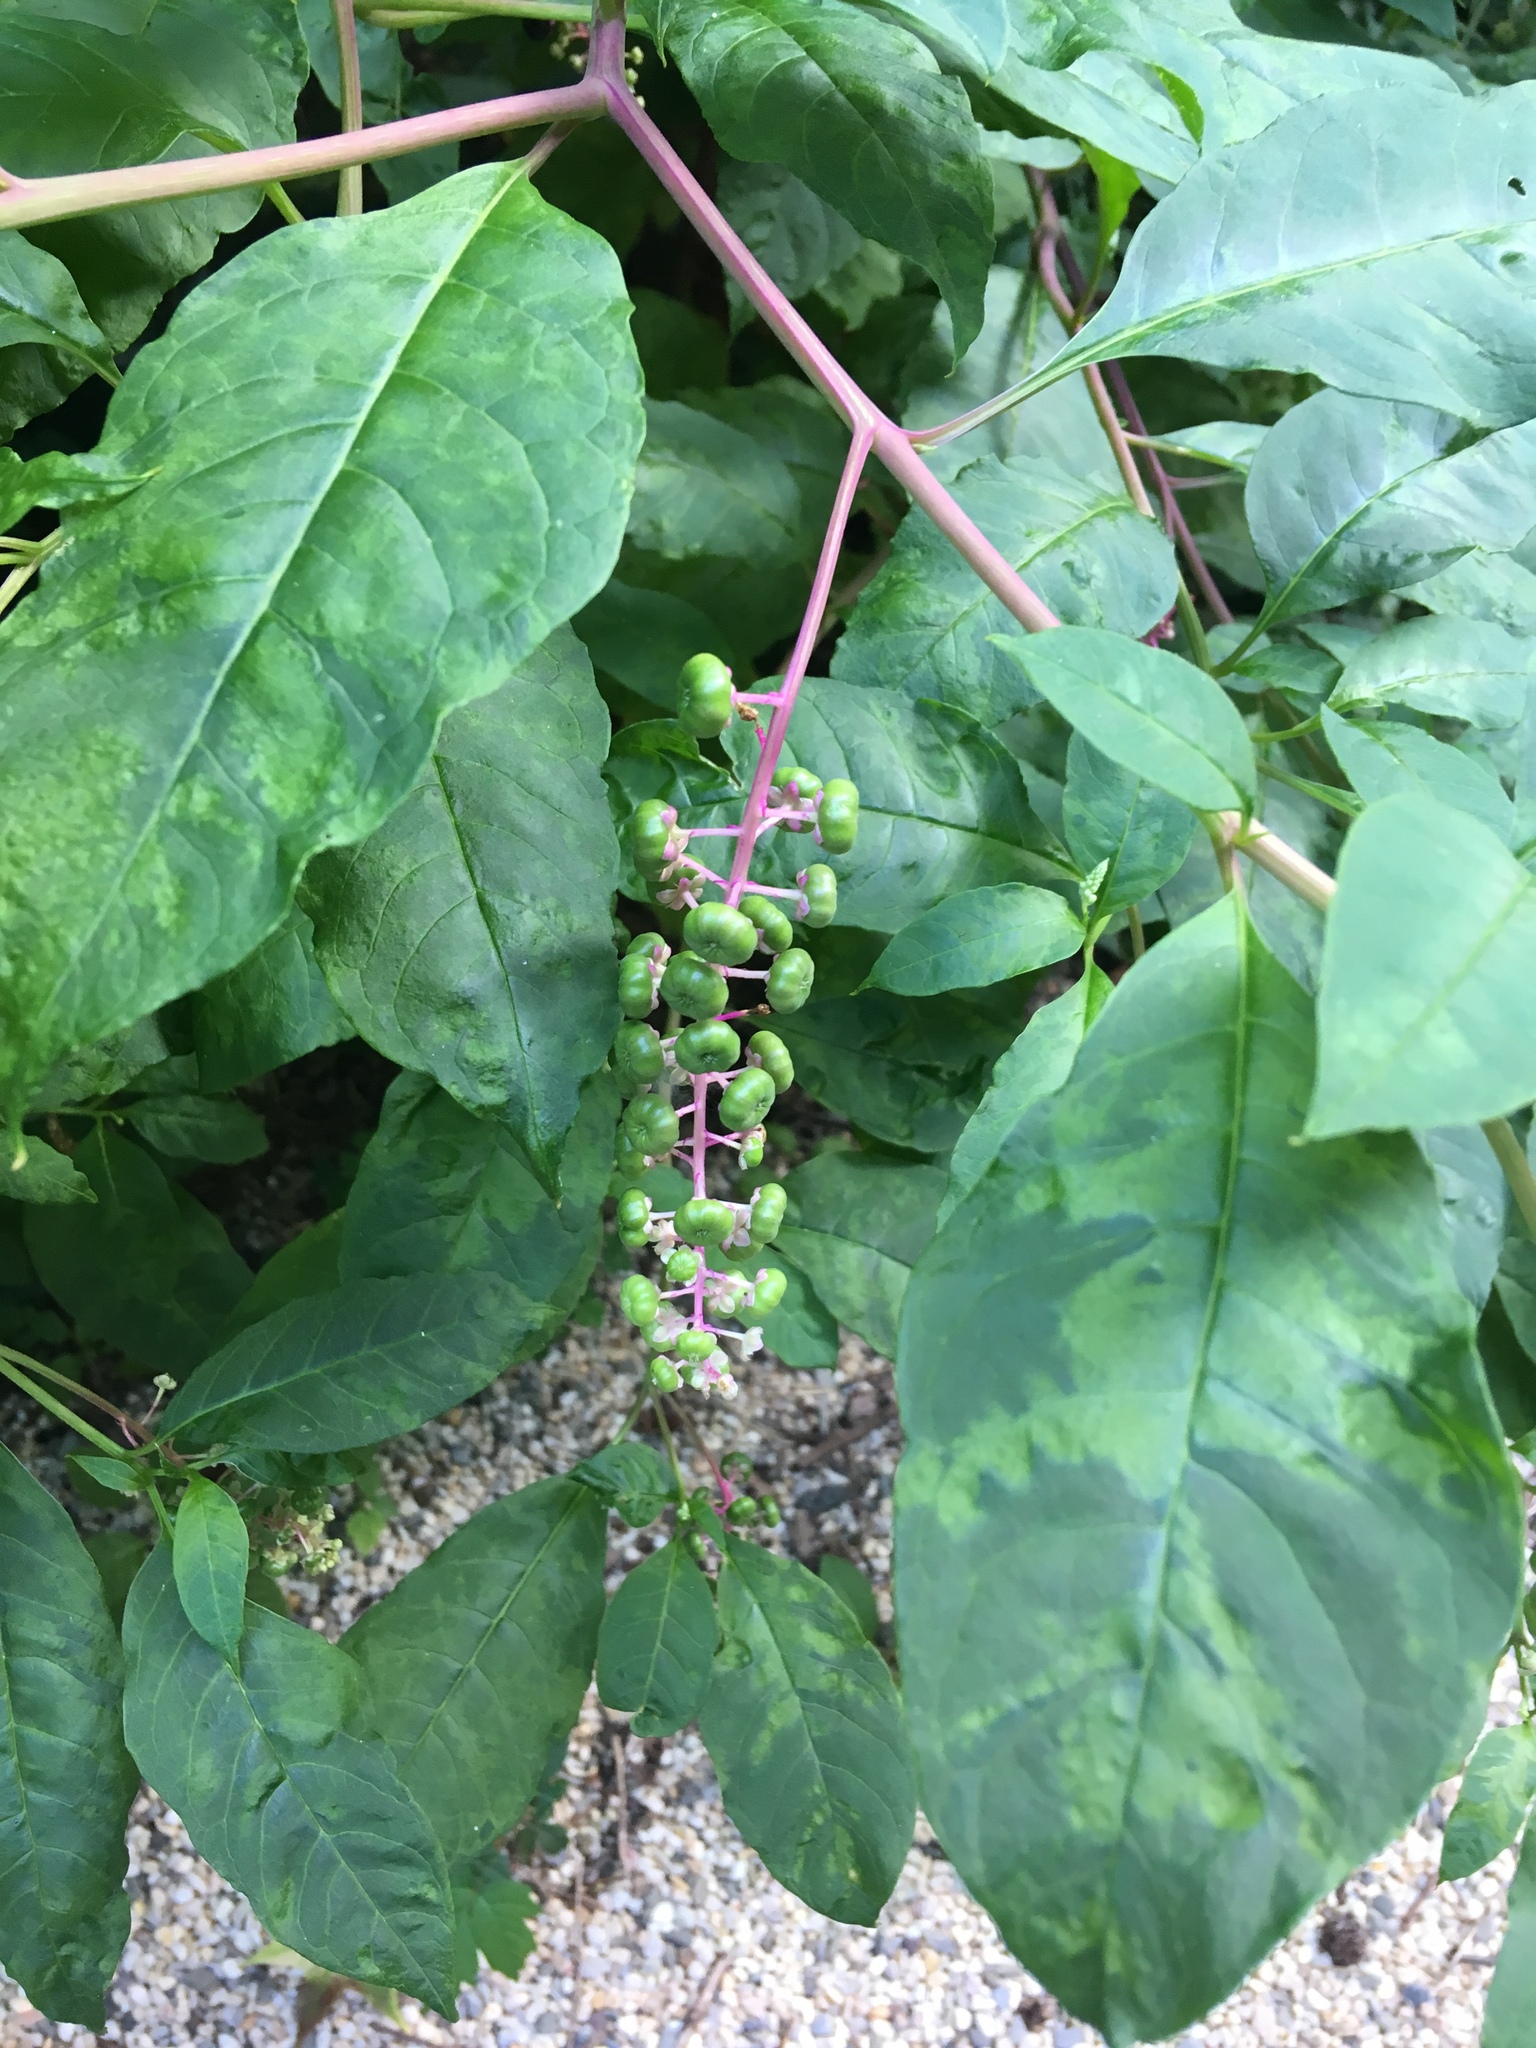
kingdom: Plantae
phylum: Tracheophyta
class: Magnoliopsida
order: Caryophyllales
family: Phytolaccaceae
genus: Phytolacca
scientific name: Phytolacca americana
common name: American pokeweed
